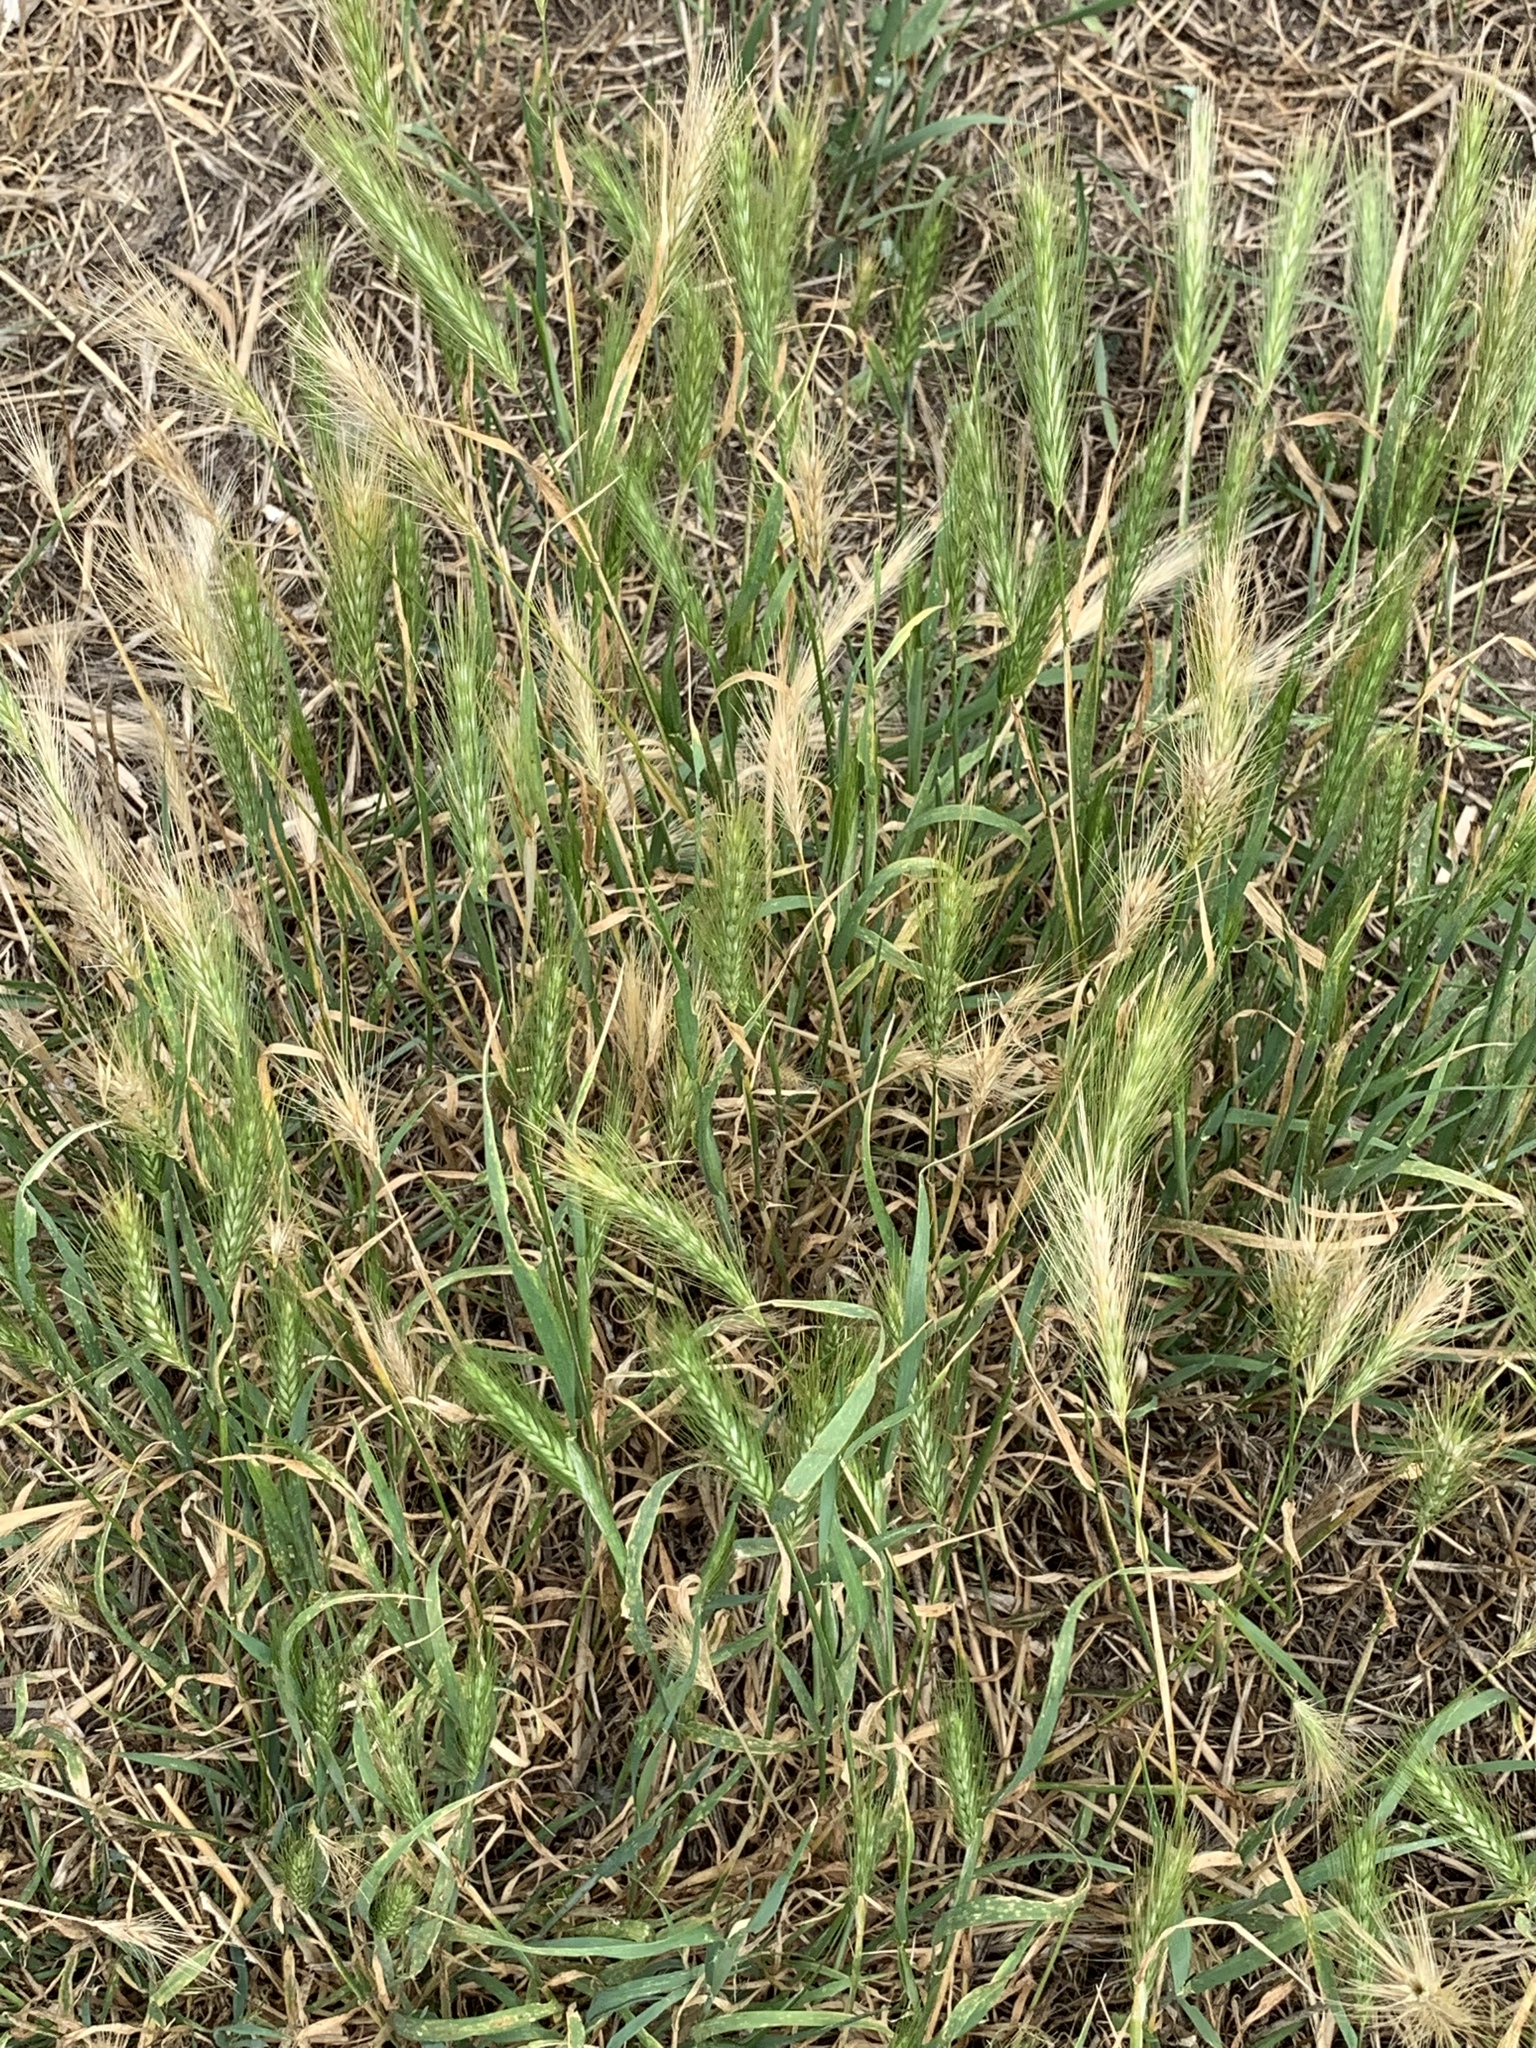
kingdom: Plantae
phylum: Tracheophyta
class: Liliopsida
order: Poales
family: Poaceae
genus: Hordeum
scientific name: Hordeum murinum
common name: Wall barley
